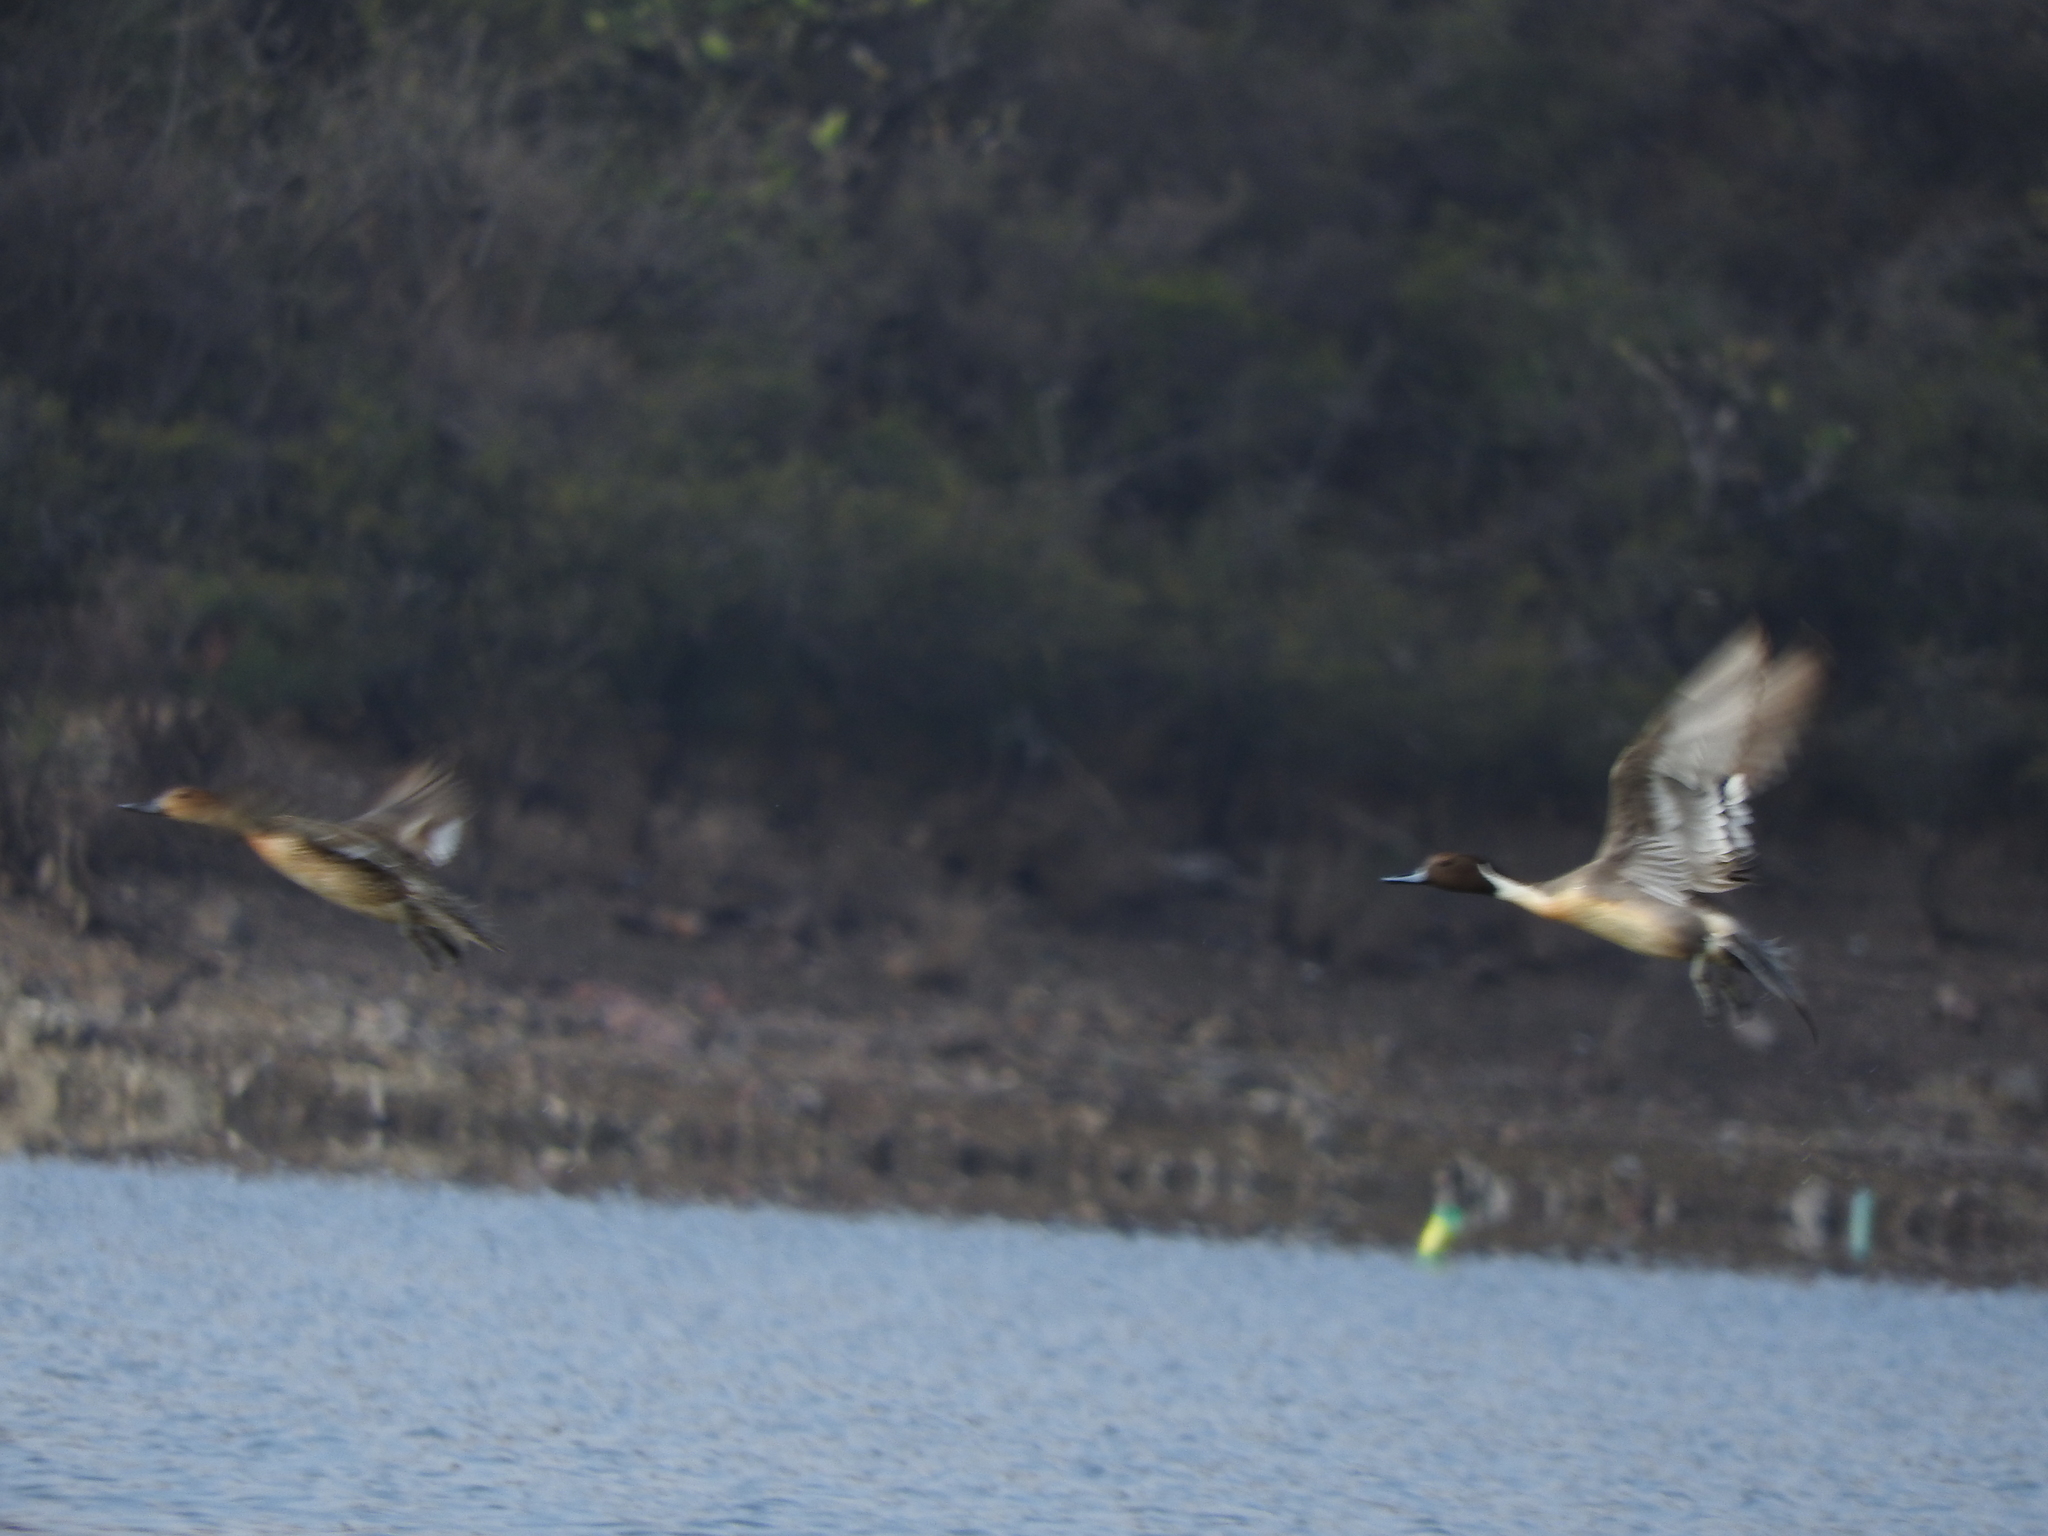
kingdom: Animalia
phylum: Chordata
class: Aves
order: Anseriformes
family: Anatidae
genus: Anas
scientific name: Anas acuta
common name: Northern pintail
